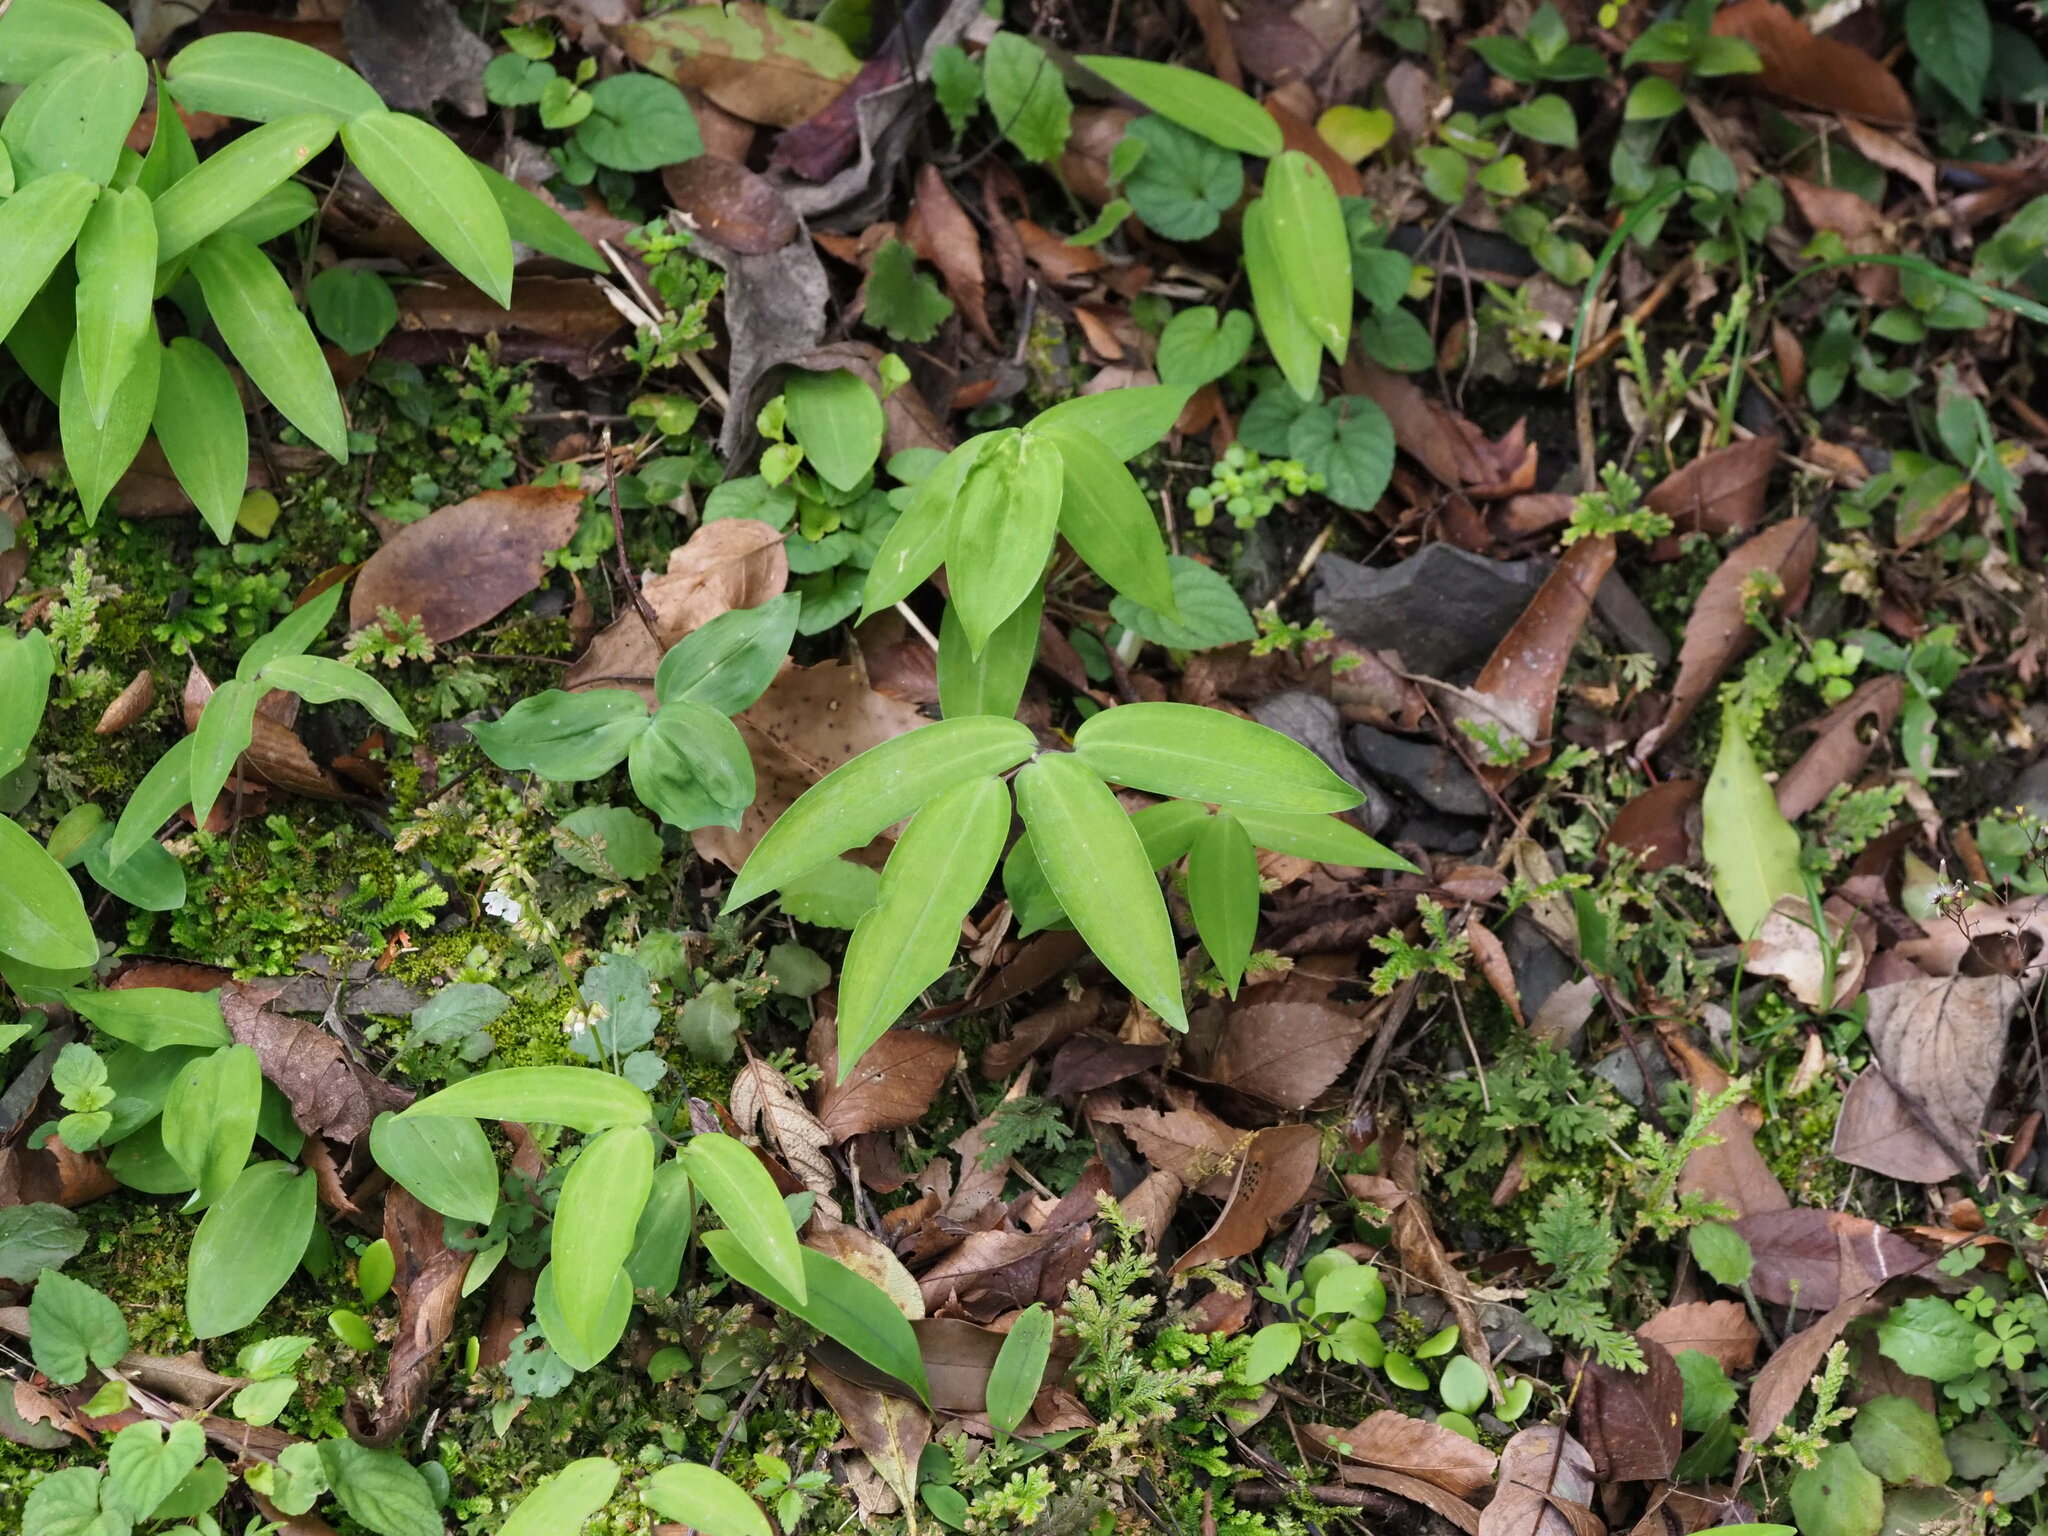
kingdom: Plantae
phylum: Tracheophyta
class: Liliopsida
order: Asparagales
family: Asparagaceae
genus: Polygonatum
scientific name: Polygonatum arisanense
